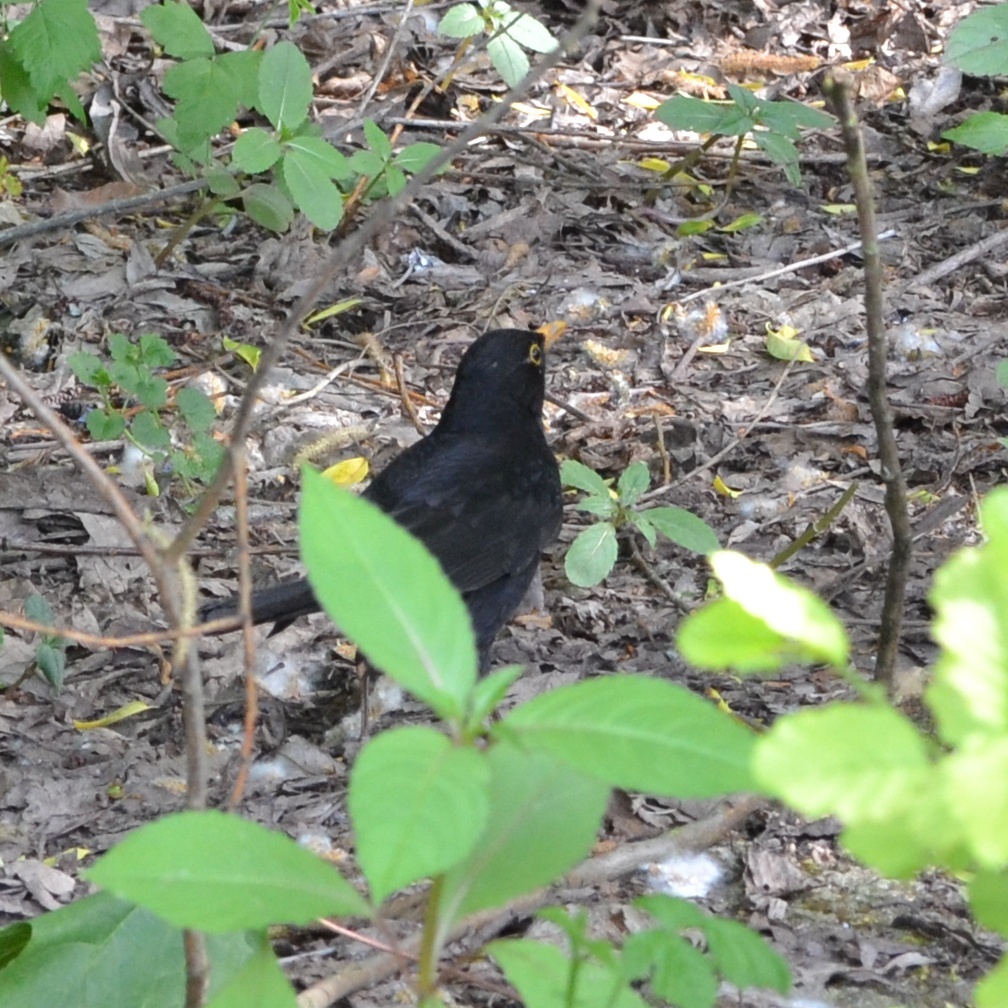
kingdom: Animalia
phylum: Chordata
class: Aves
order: Passeriformes
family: Turdidae
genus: Turdus
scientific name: Turdus merula
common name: Common blackbird
